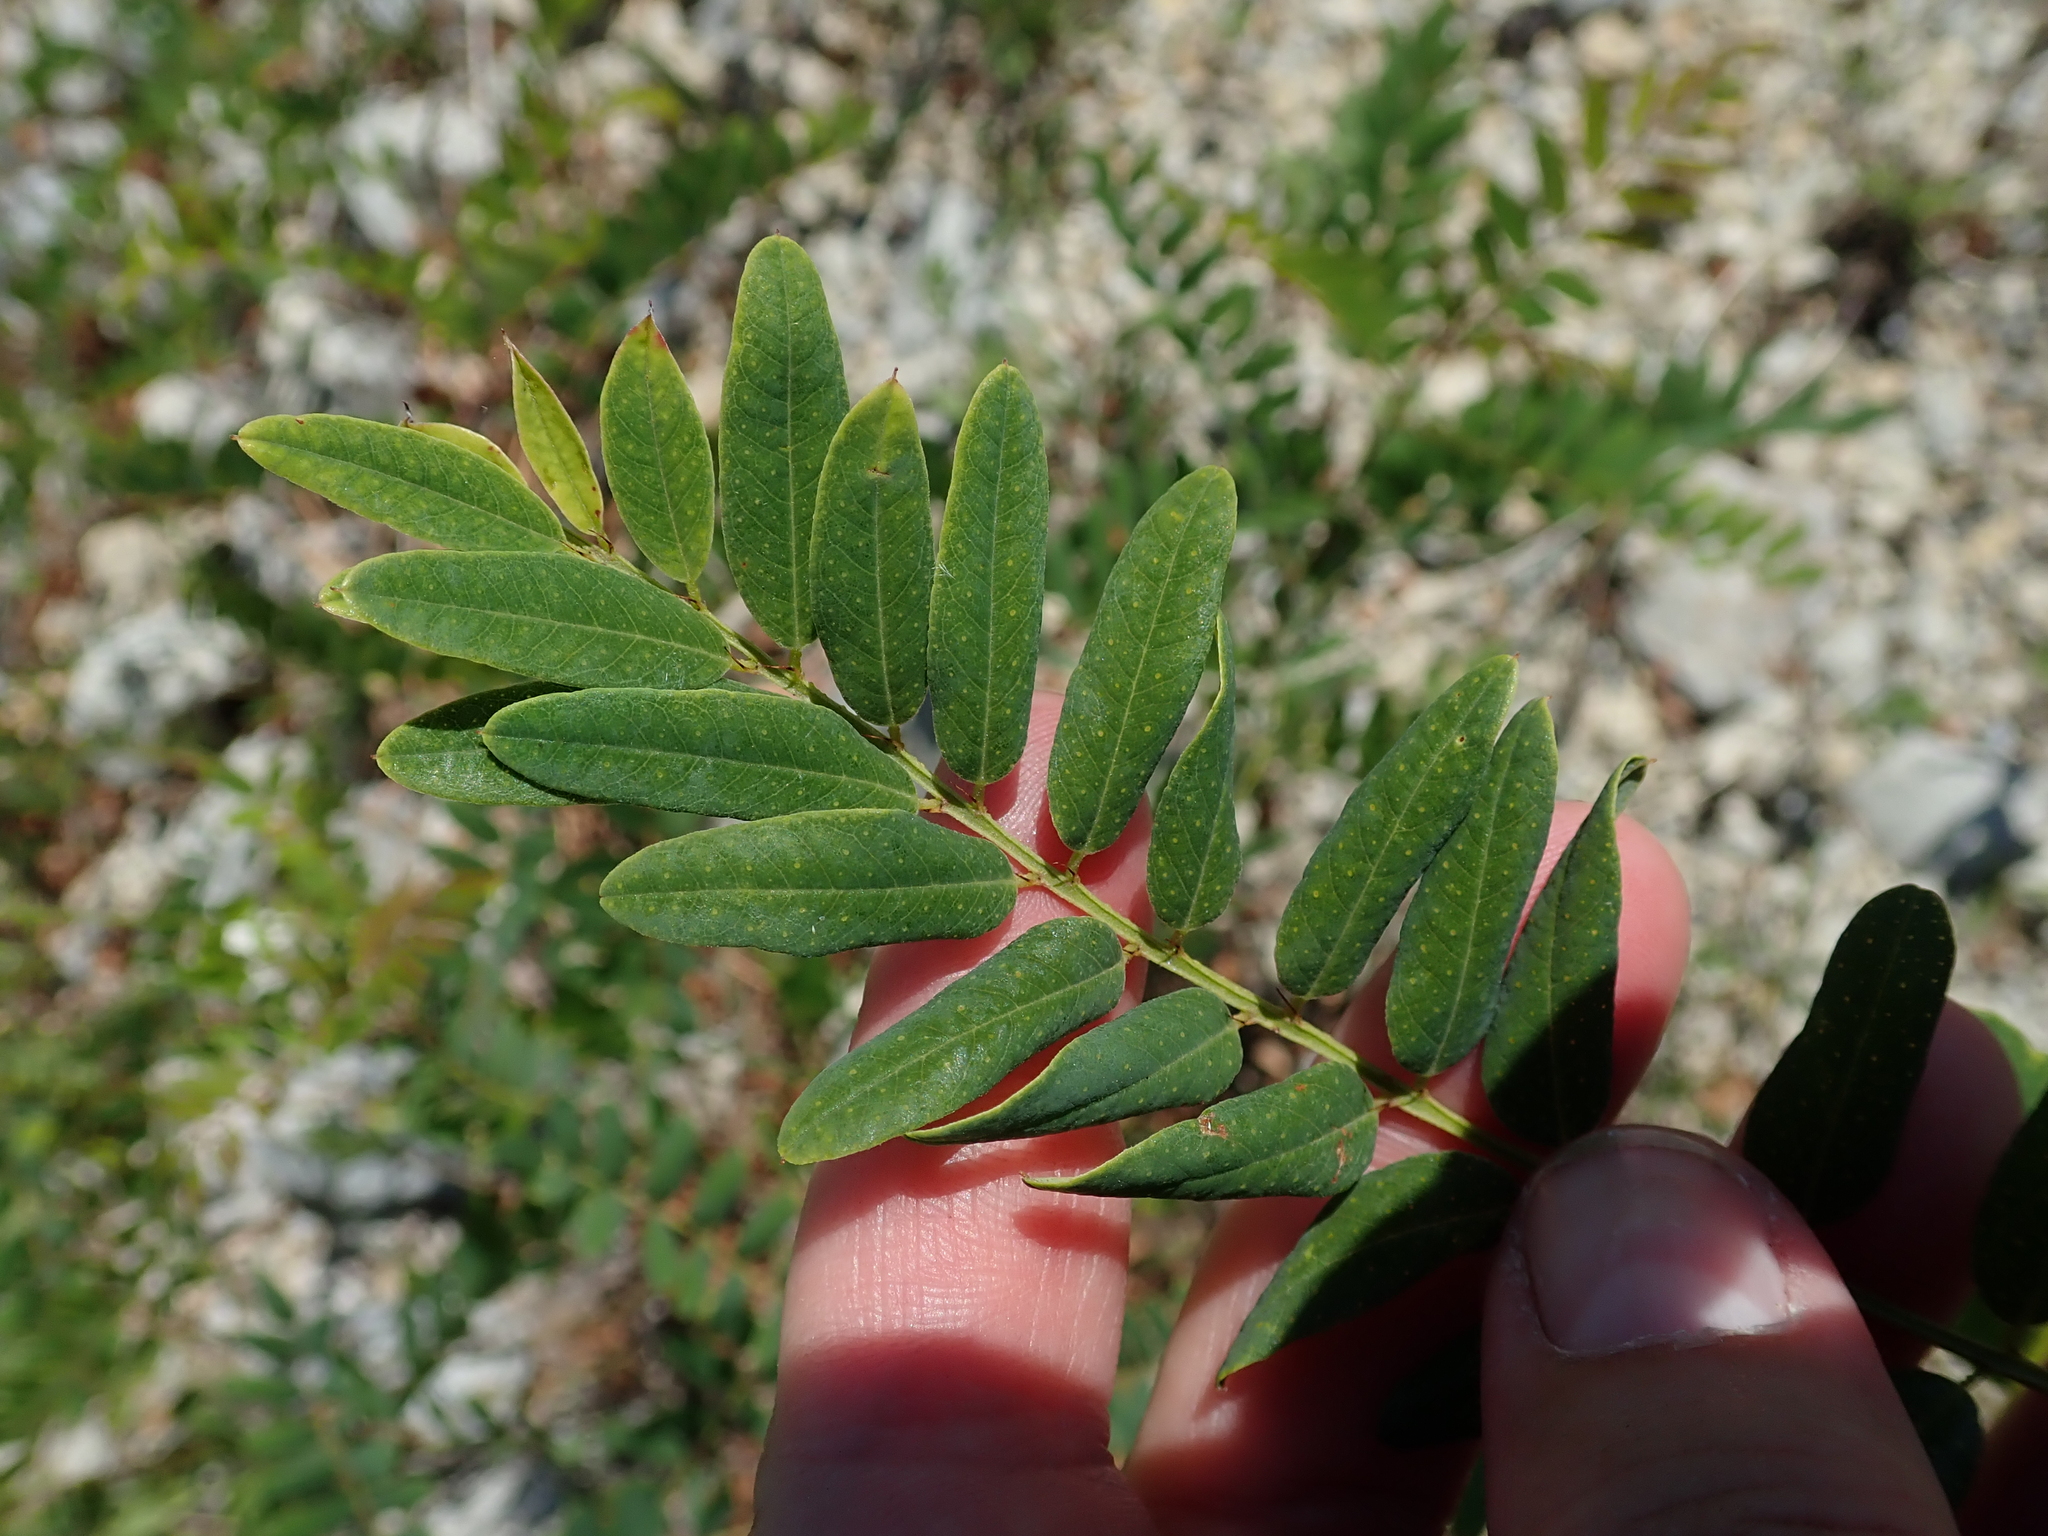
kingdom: Plantae
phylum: Tracheophyta
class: Magnoliopsida
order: Fabales
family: Fabaceae
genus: Amorpha
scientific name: Amorpha fruticosa
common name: False indigo
